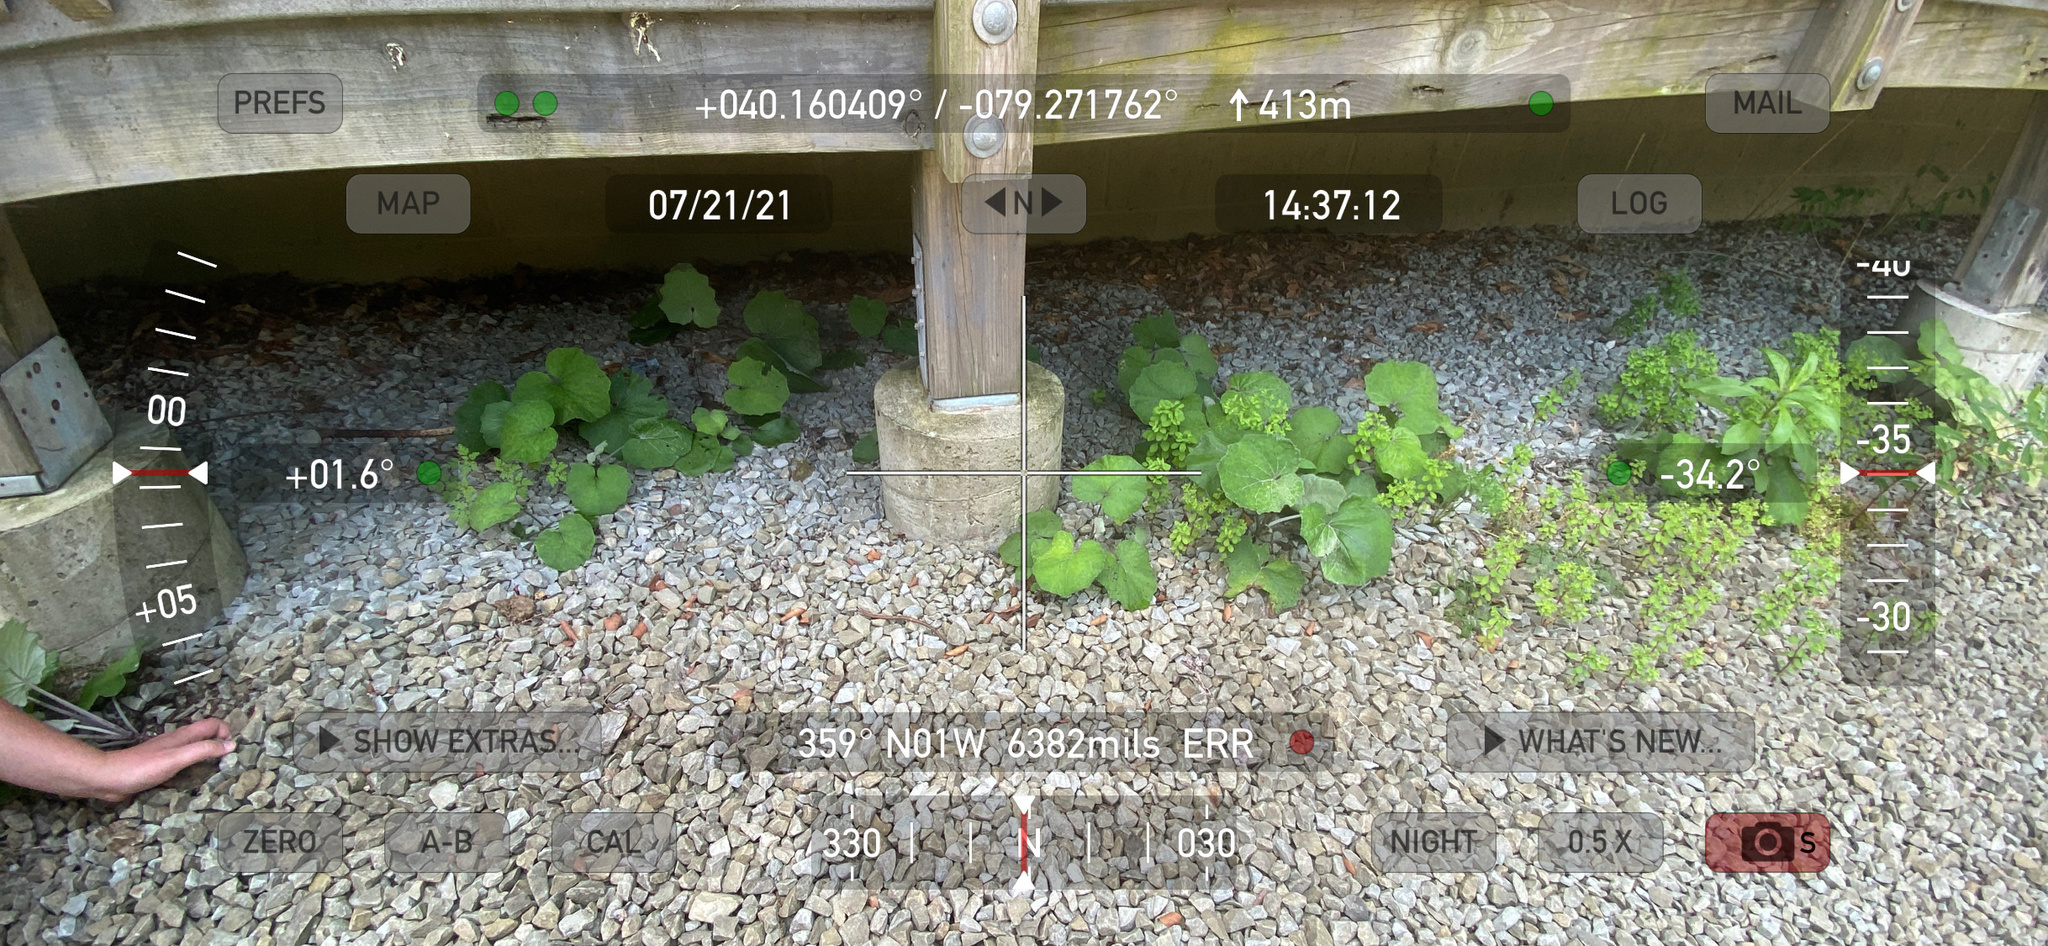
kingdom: Plantae
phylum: Tracheophyta
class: Magnoliopsida
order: Asterales
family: Asteraceae
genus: Tussilago
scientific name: Tussilago farfara
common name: Coltsfoot
